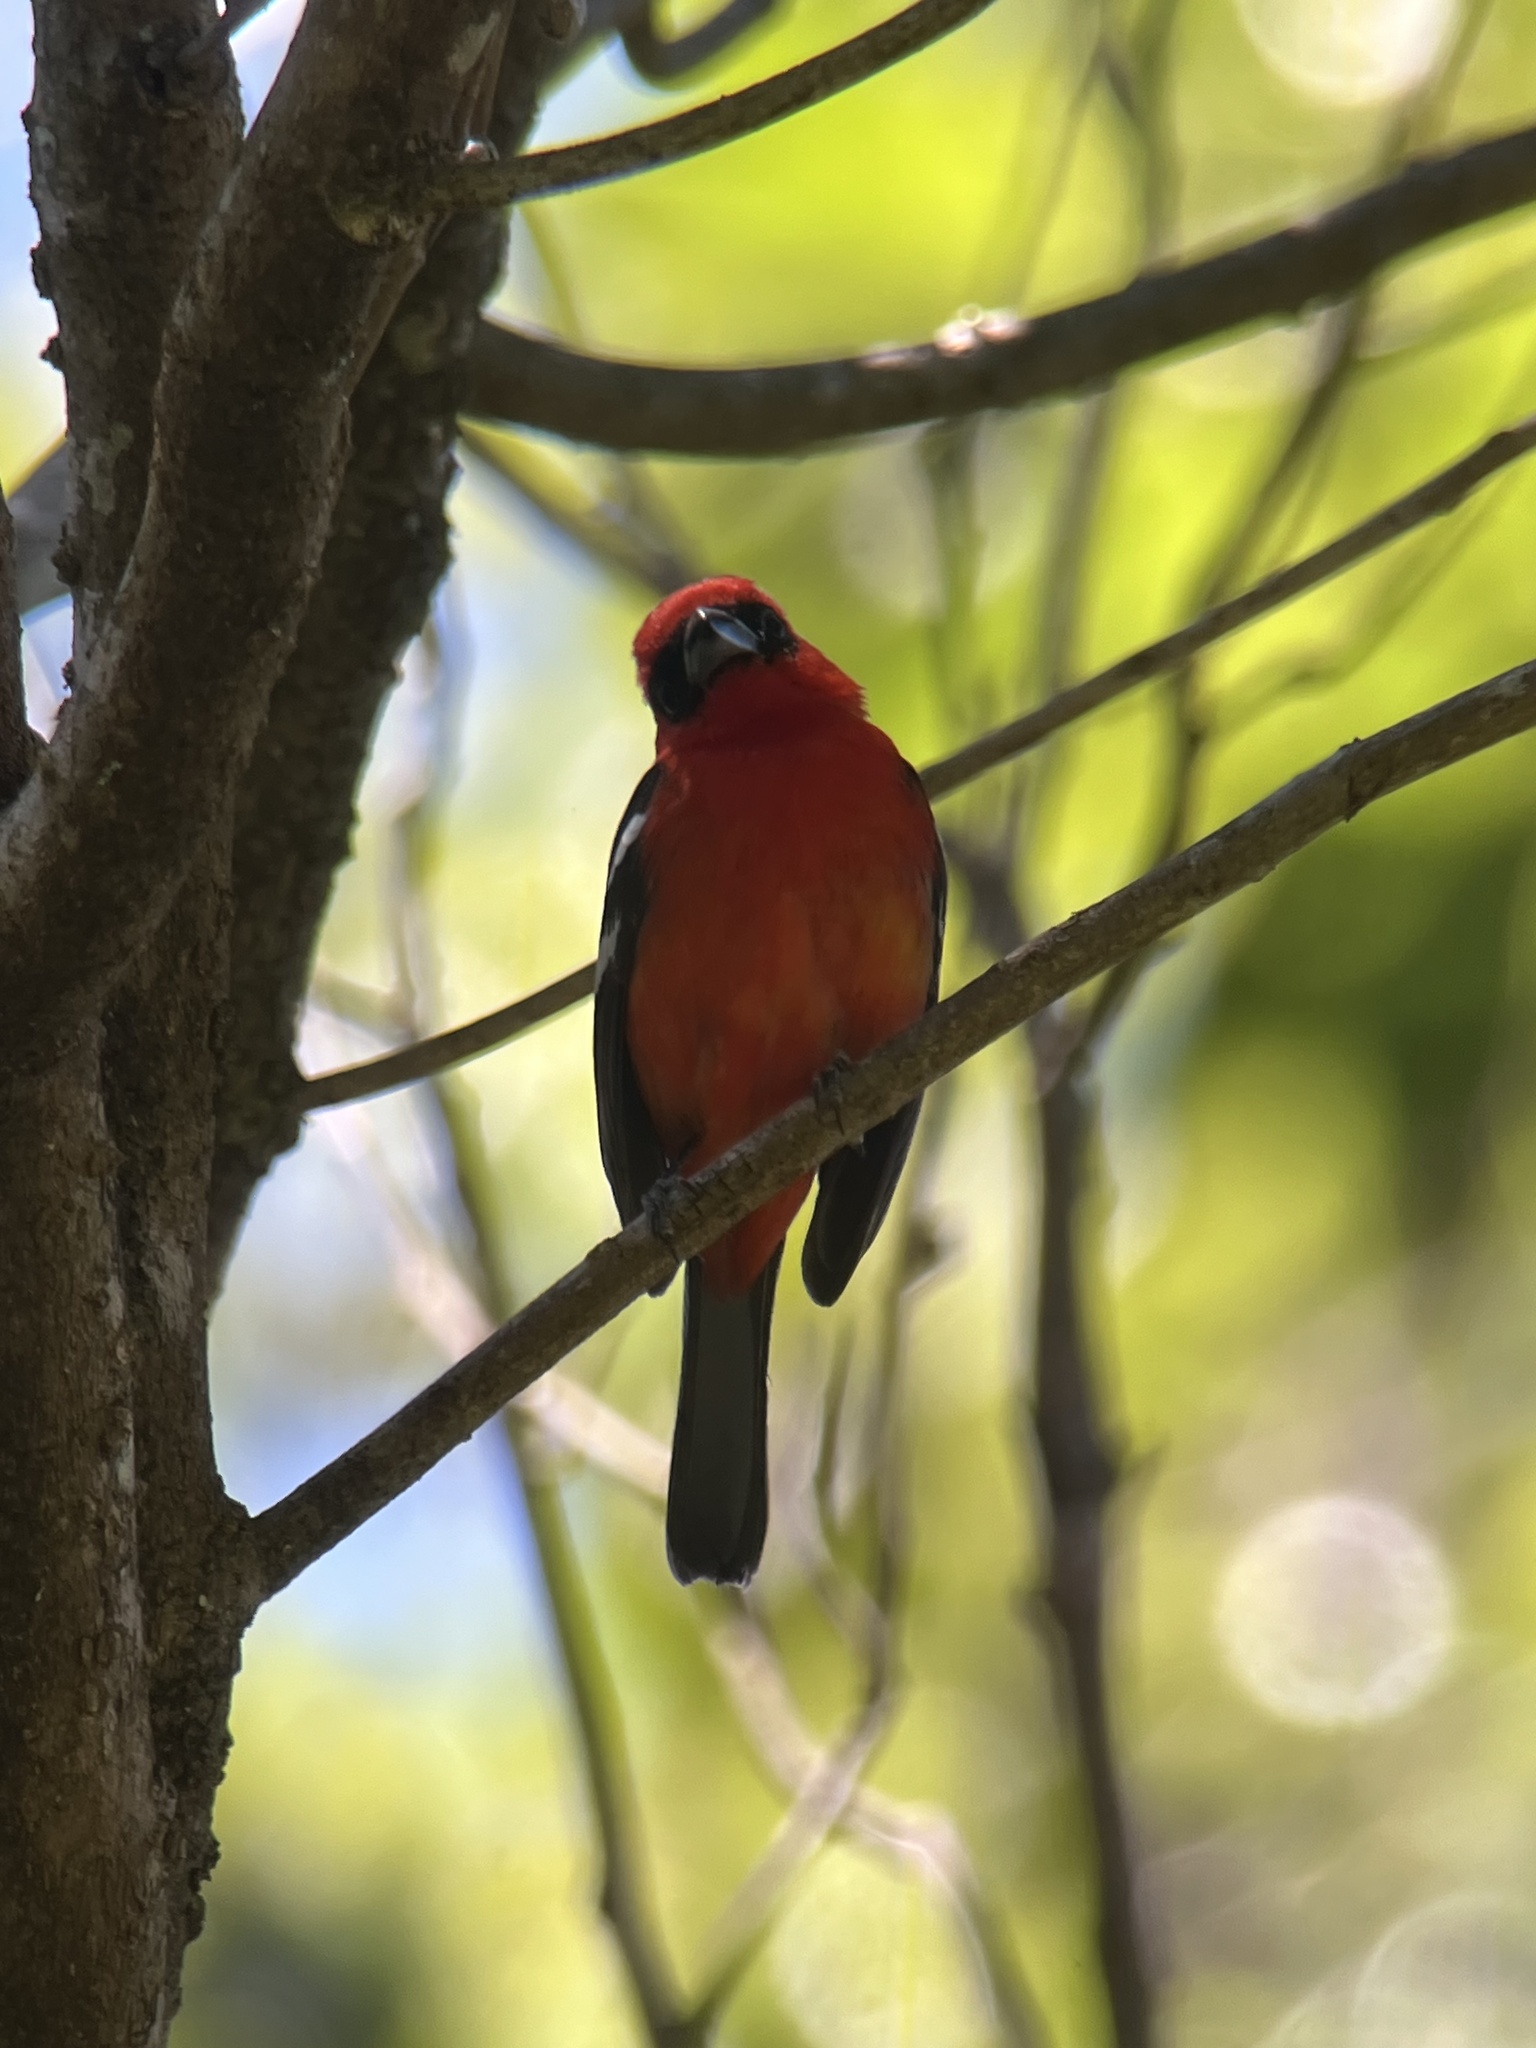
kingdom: Animalia
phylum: Chordata
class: Aves
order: Passeriformes
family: Cardinalidae
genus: Piranga
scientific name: Piranga leucoptera
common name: White-winged tanager
